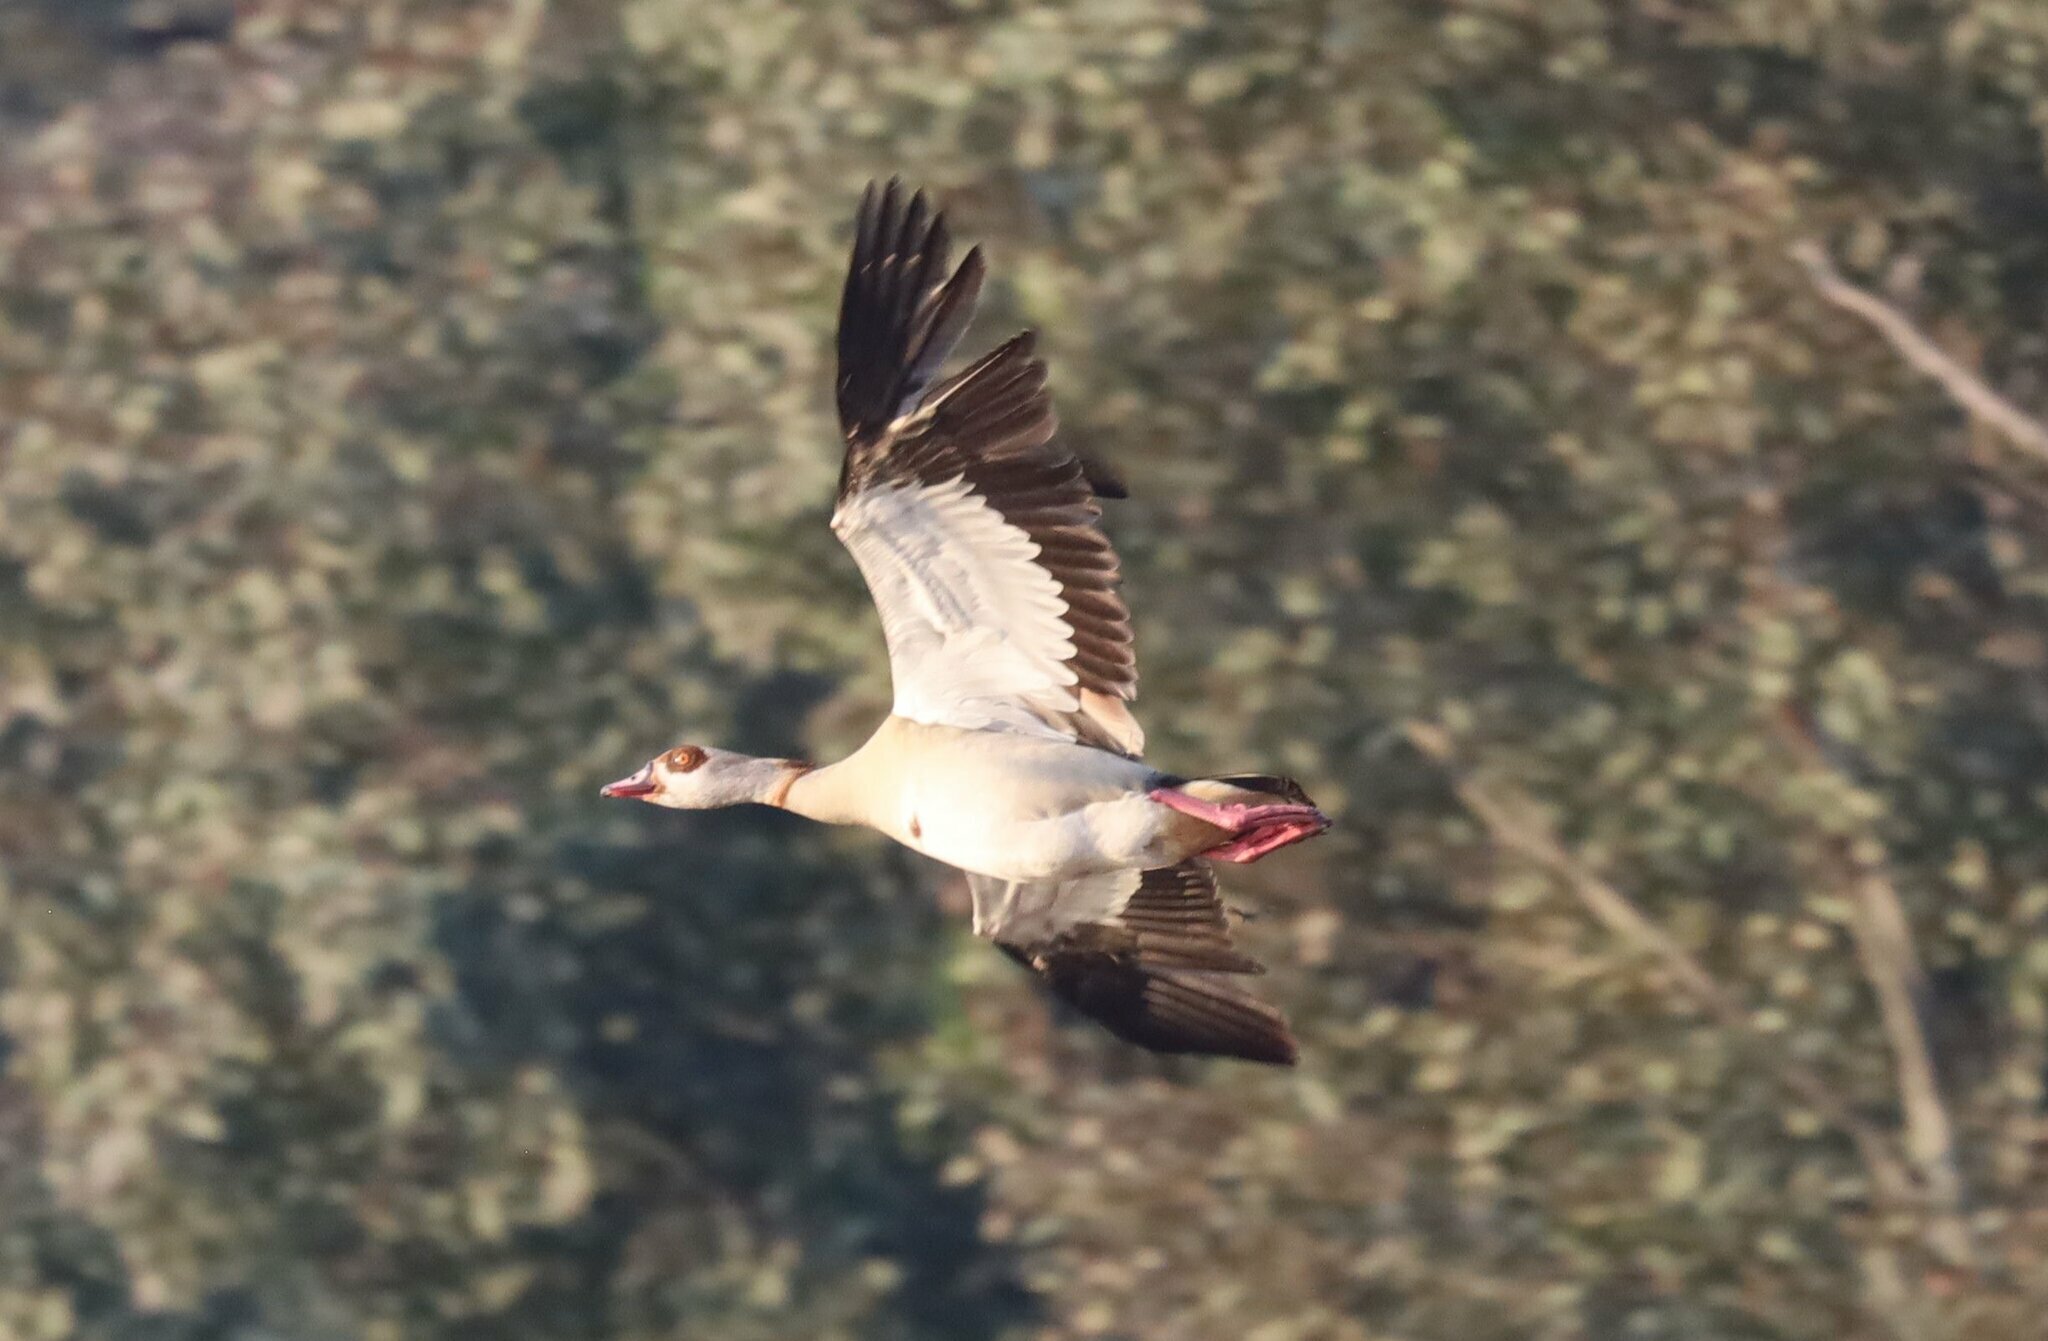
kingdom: Animalia
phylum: Chordata
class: Aves
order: Anseriformes
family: Anatidae
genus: Alopochen
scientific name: Alopochen aegyptiaca
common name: Egyptian goose
